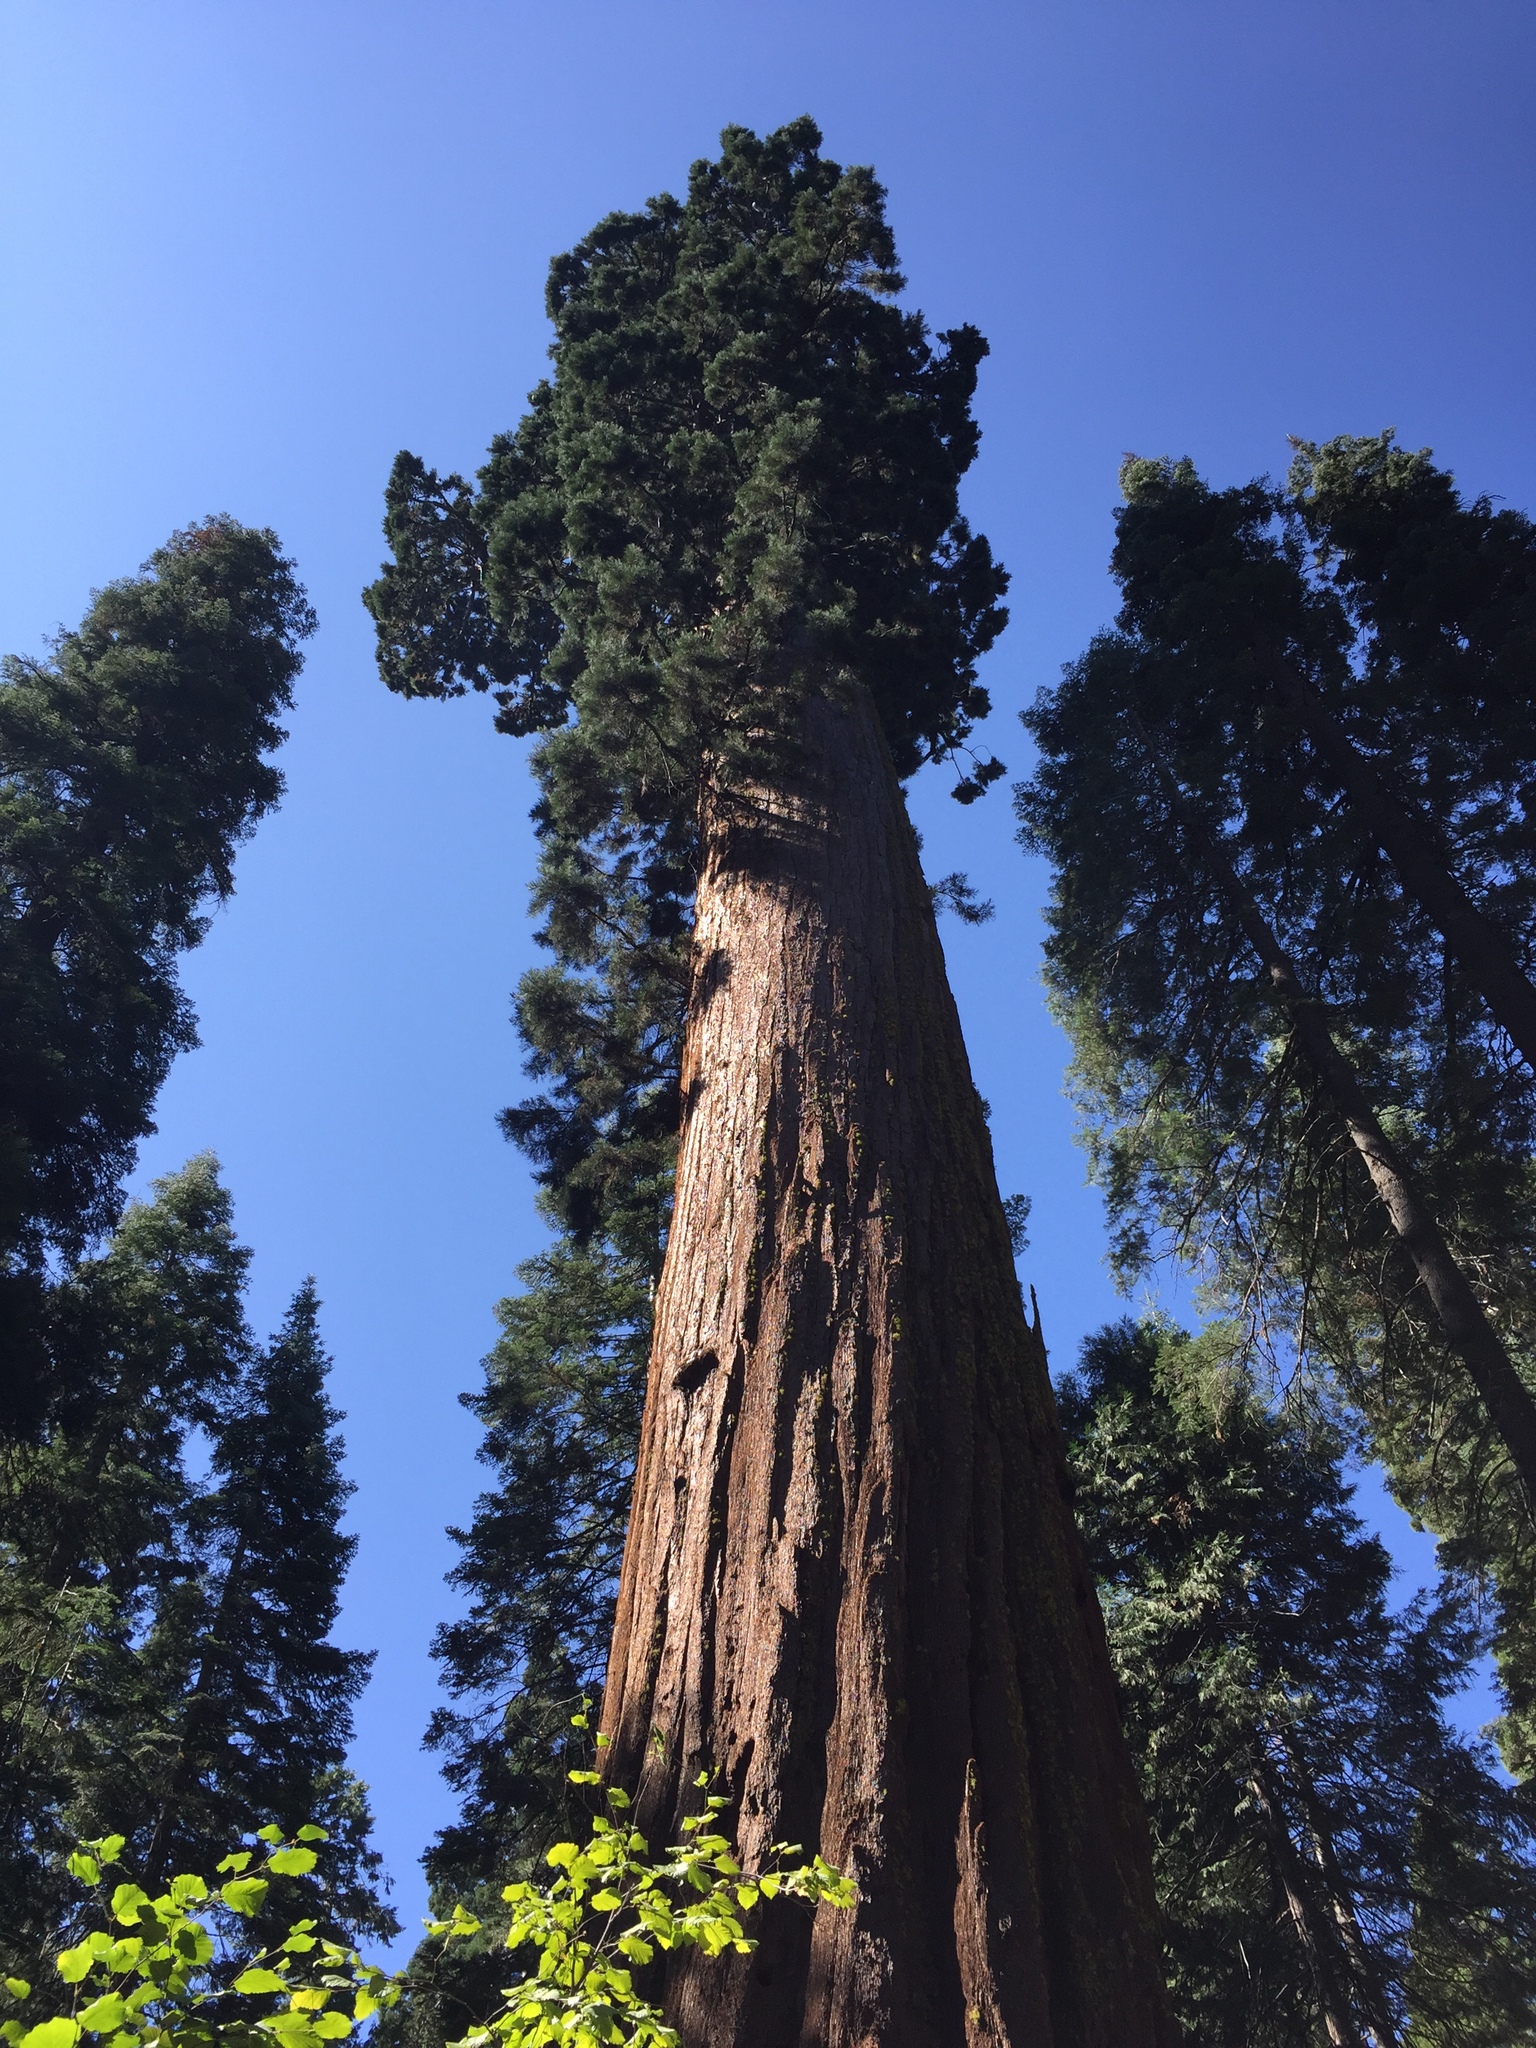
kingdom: Plantae
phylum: Tracheophyta
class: Pinopsida
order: Pinales
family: Cupressaceae
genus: Sequoiadendron
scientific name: Sequoiadendron giganteum
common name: Wellingtonia
